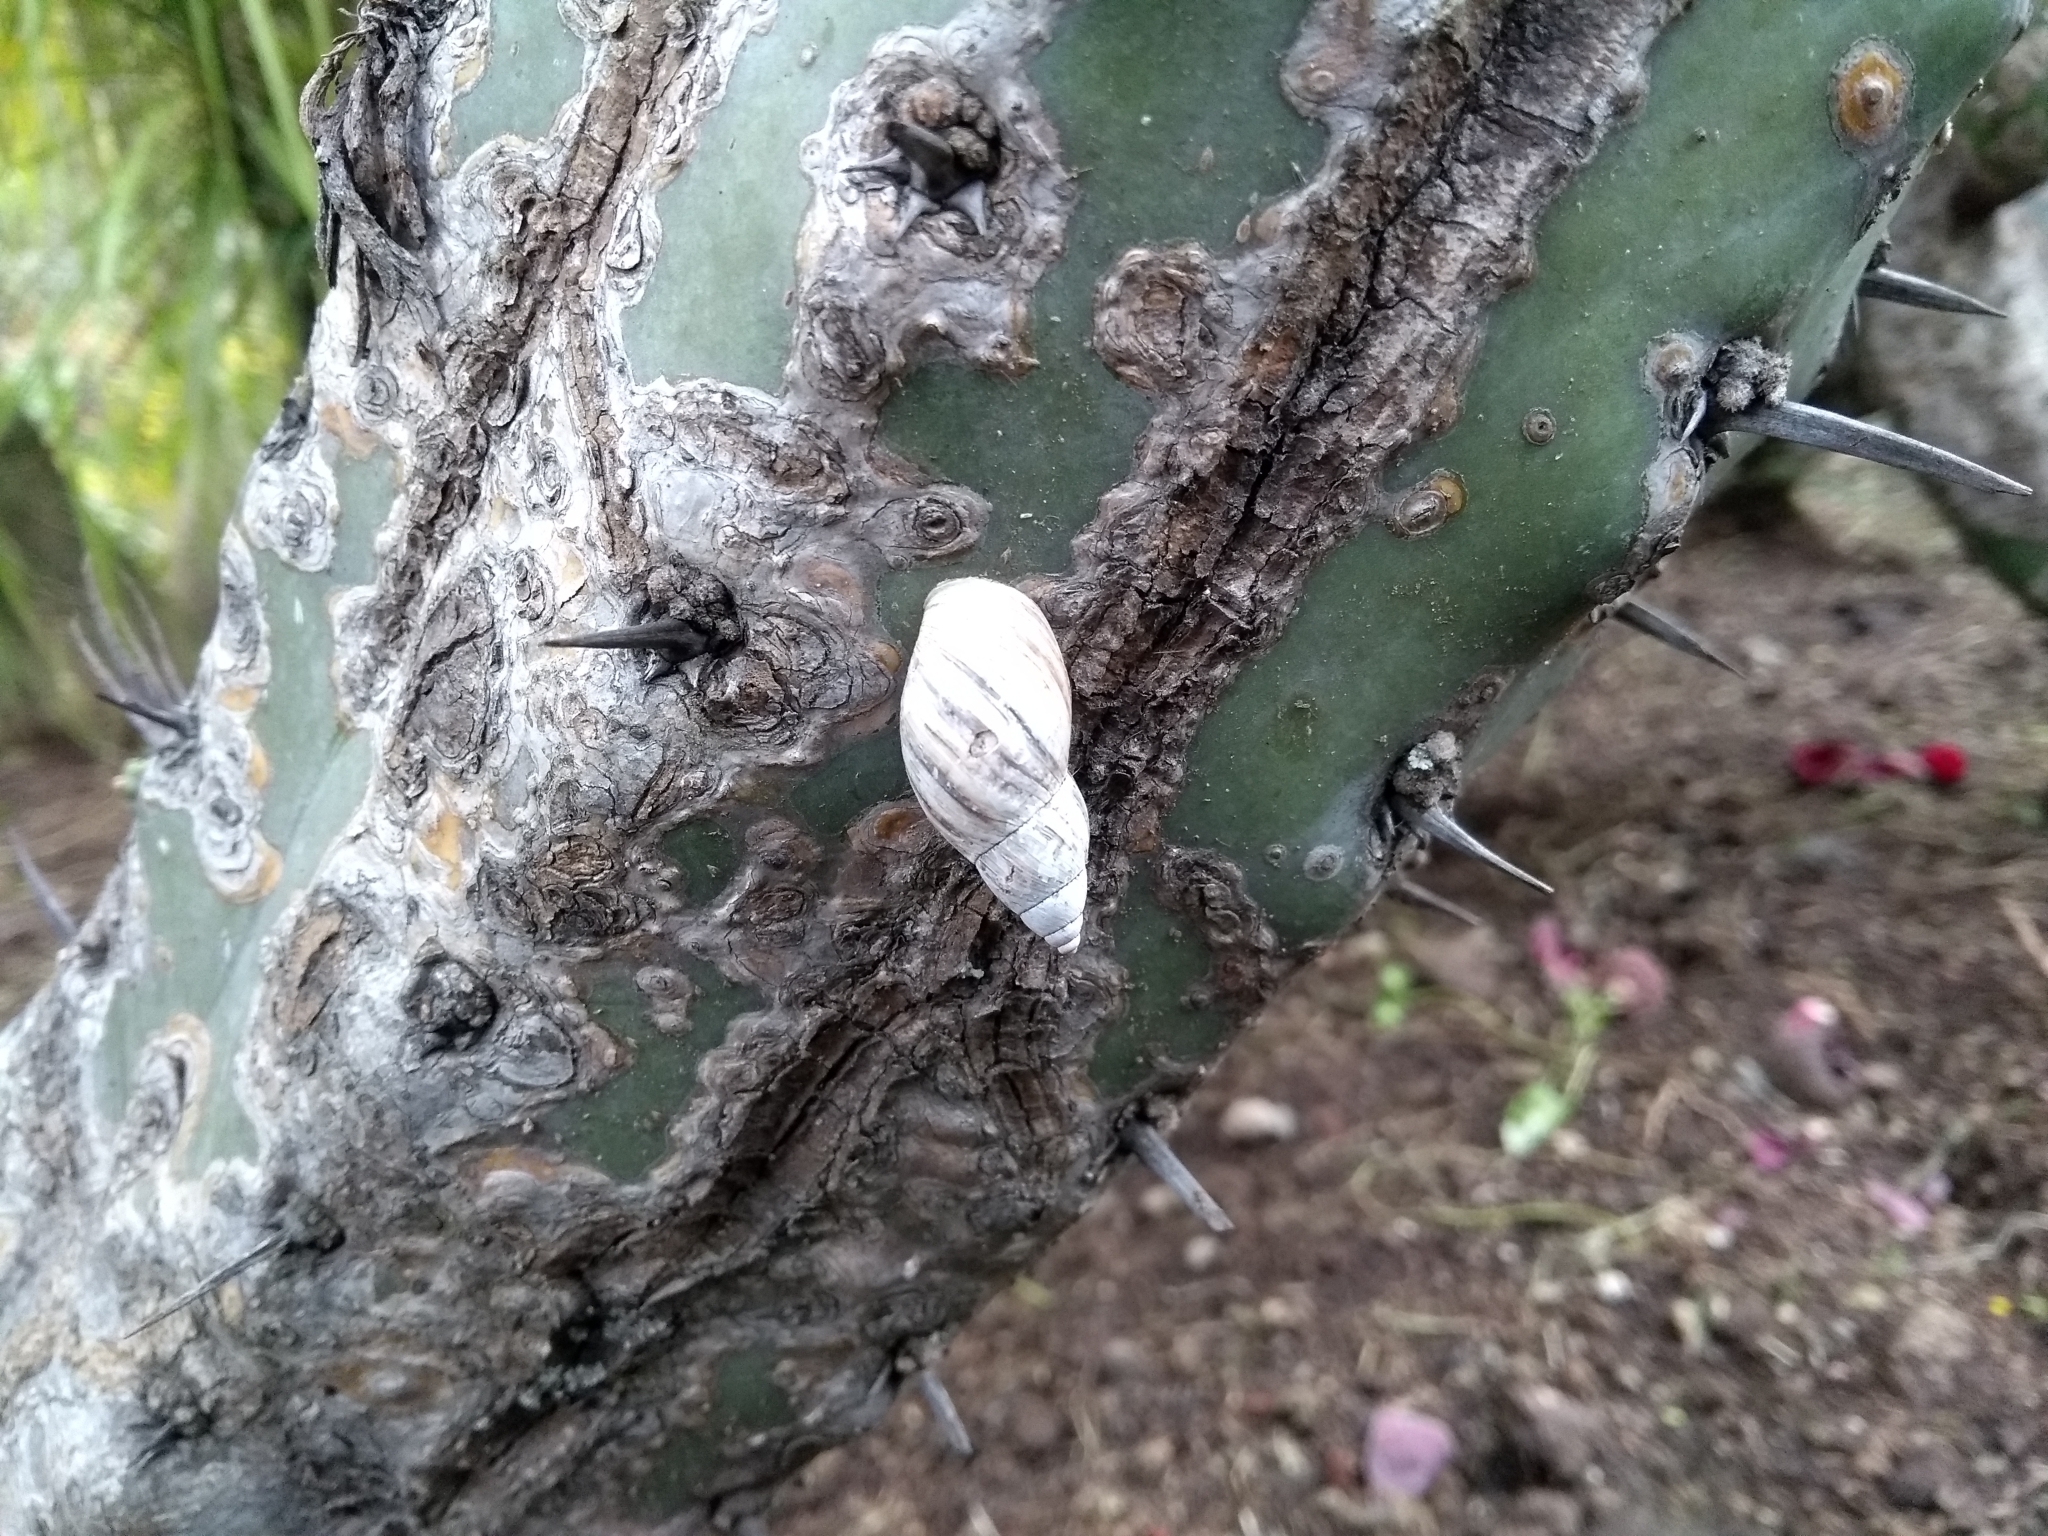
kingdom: Animalia
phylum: Mollusca
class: Gastropoda
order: Stylommatophora
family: Bulimulidae
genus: Drymaeus
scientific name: Drymaeus
